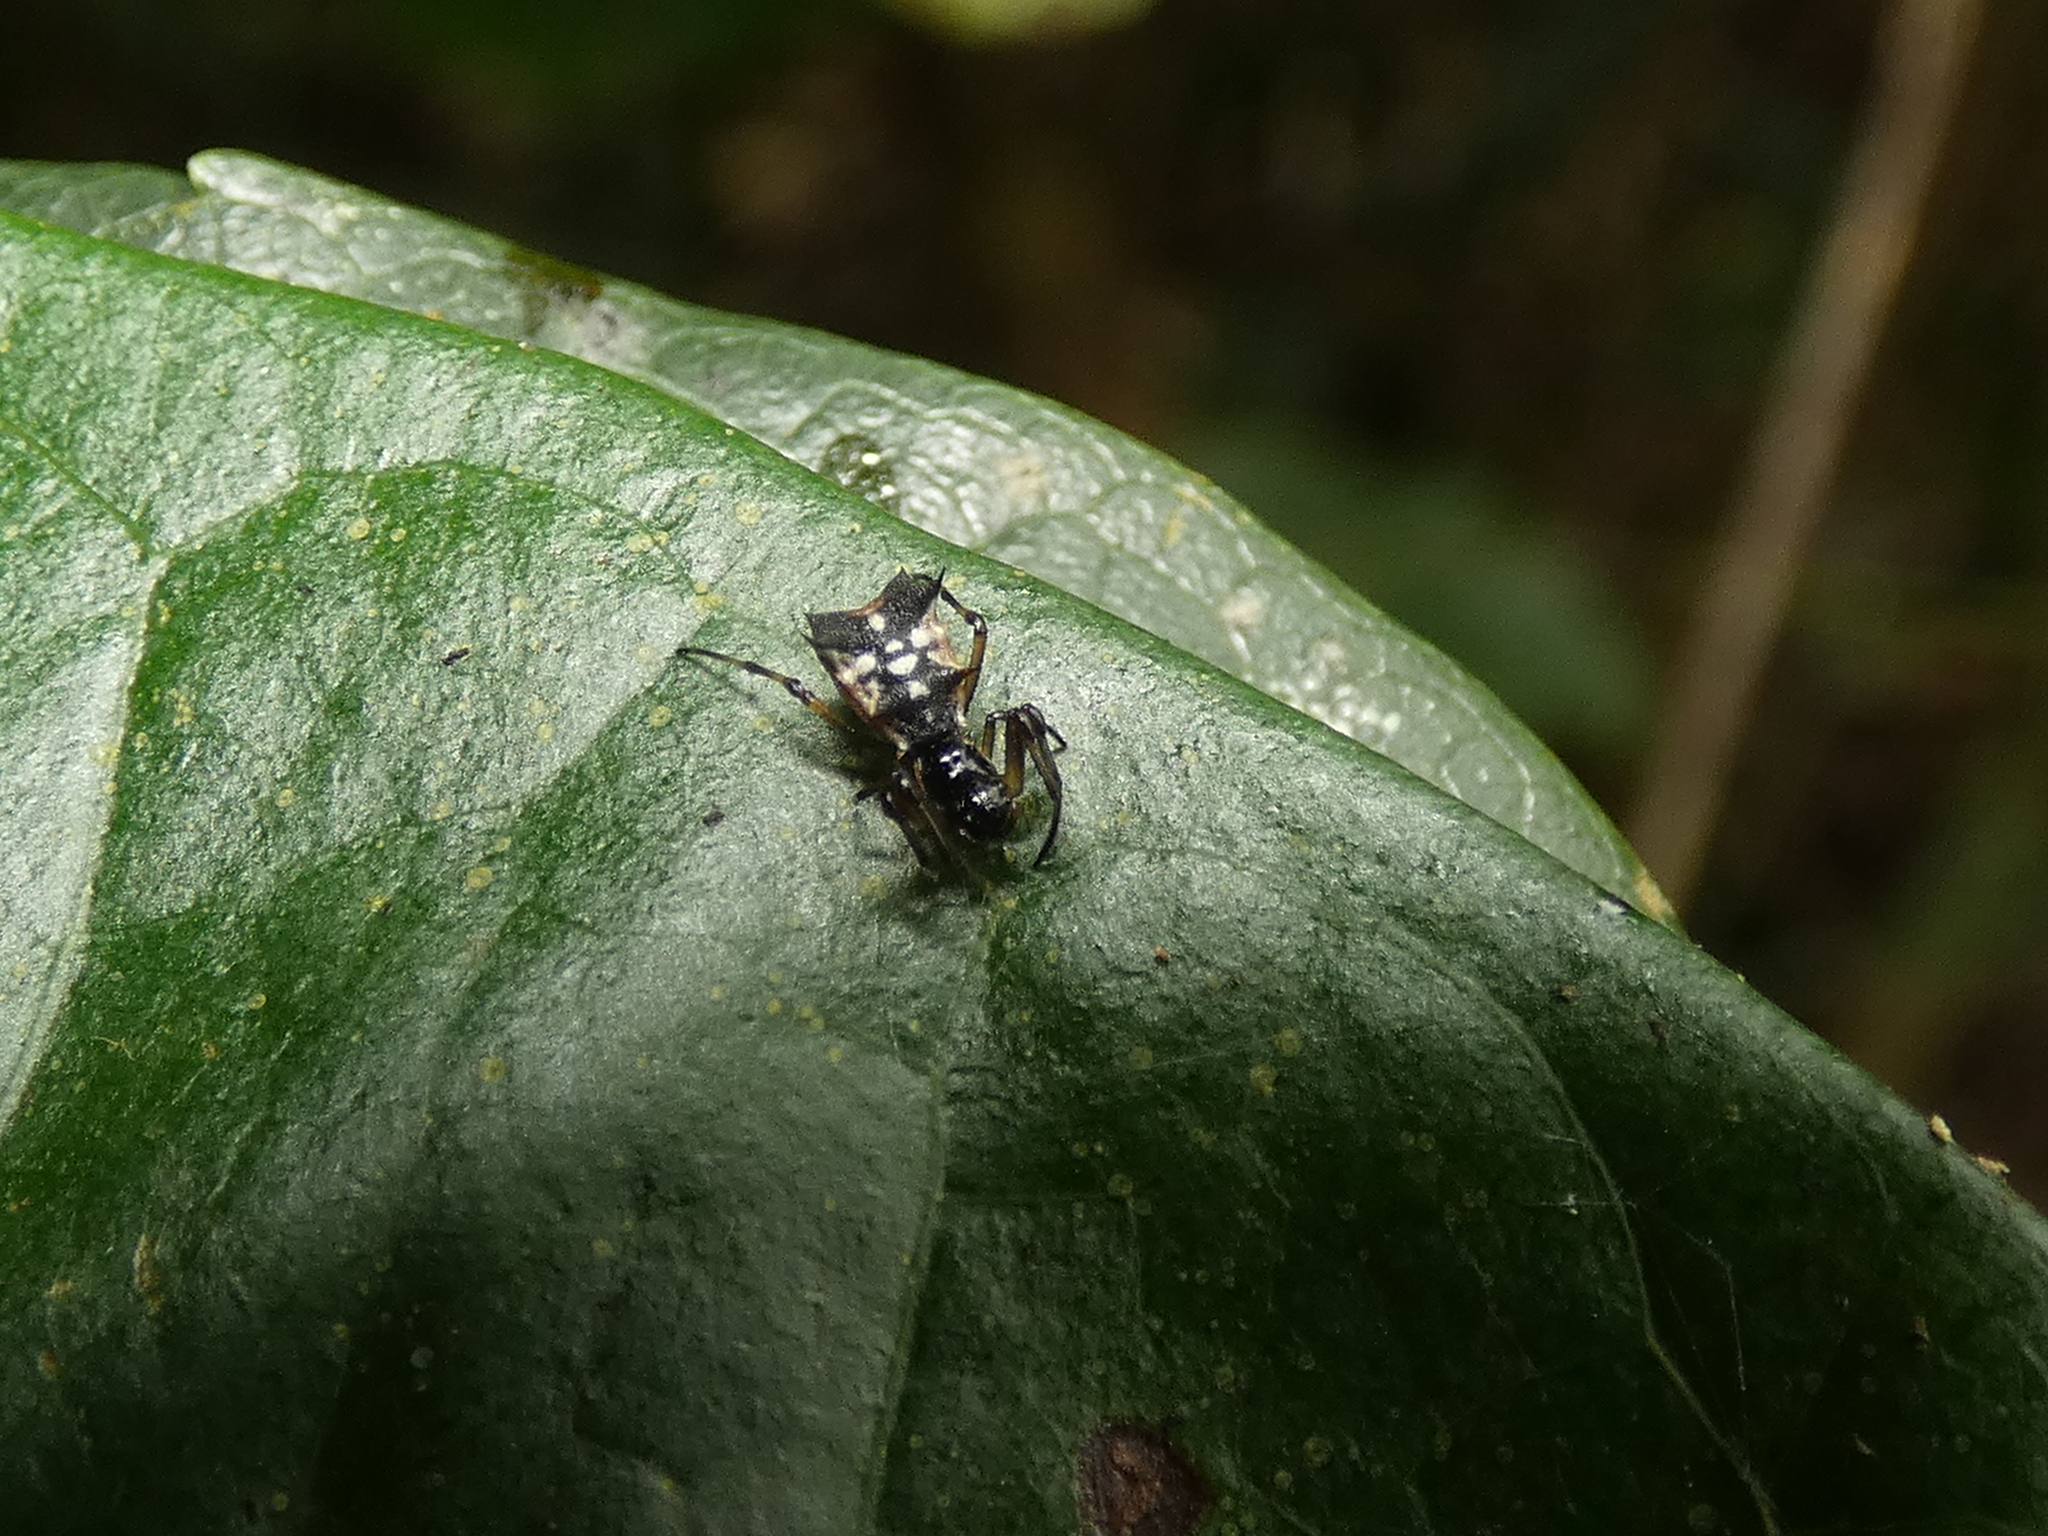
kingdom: Animalia
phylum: Arthropoda
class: Arachnida
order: Araneae
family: Araneidae
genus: Micrathena
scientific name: Micrathena picta
